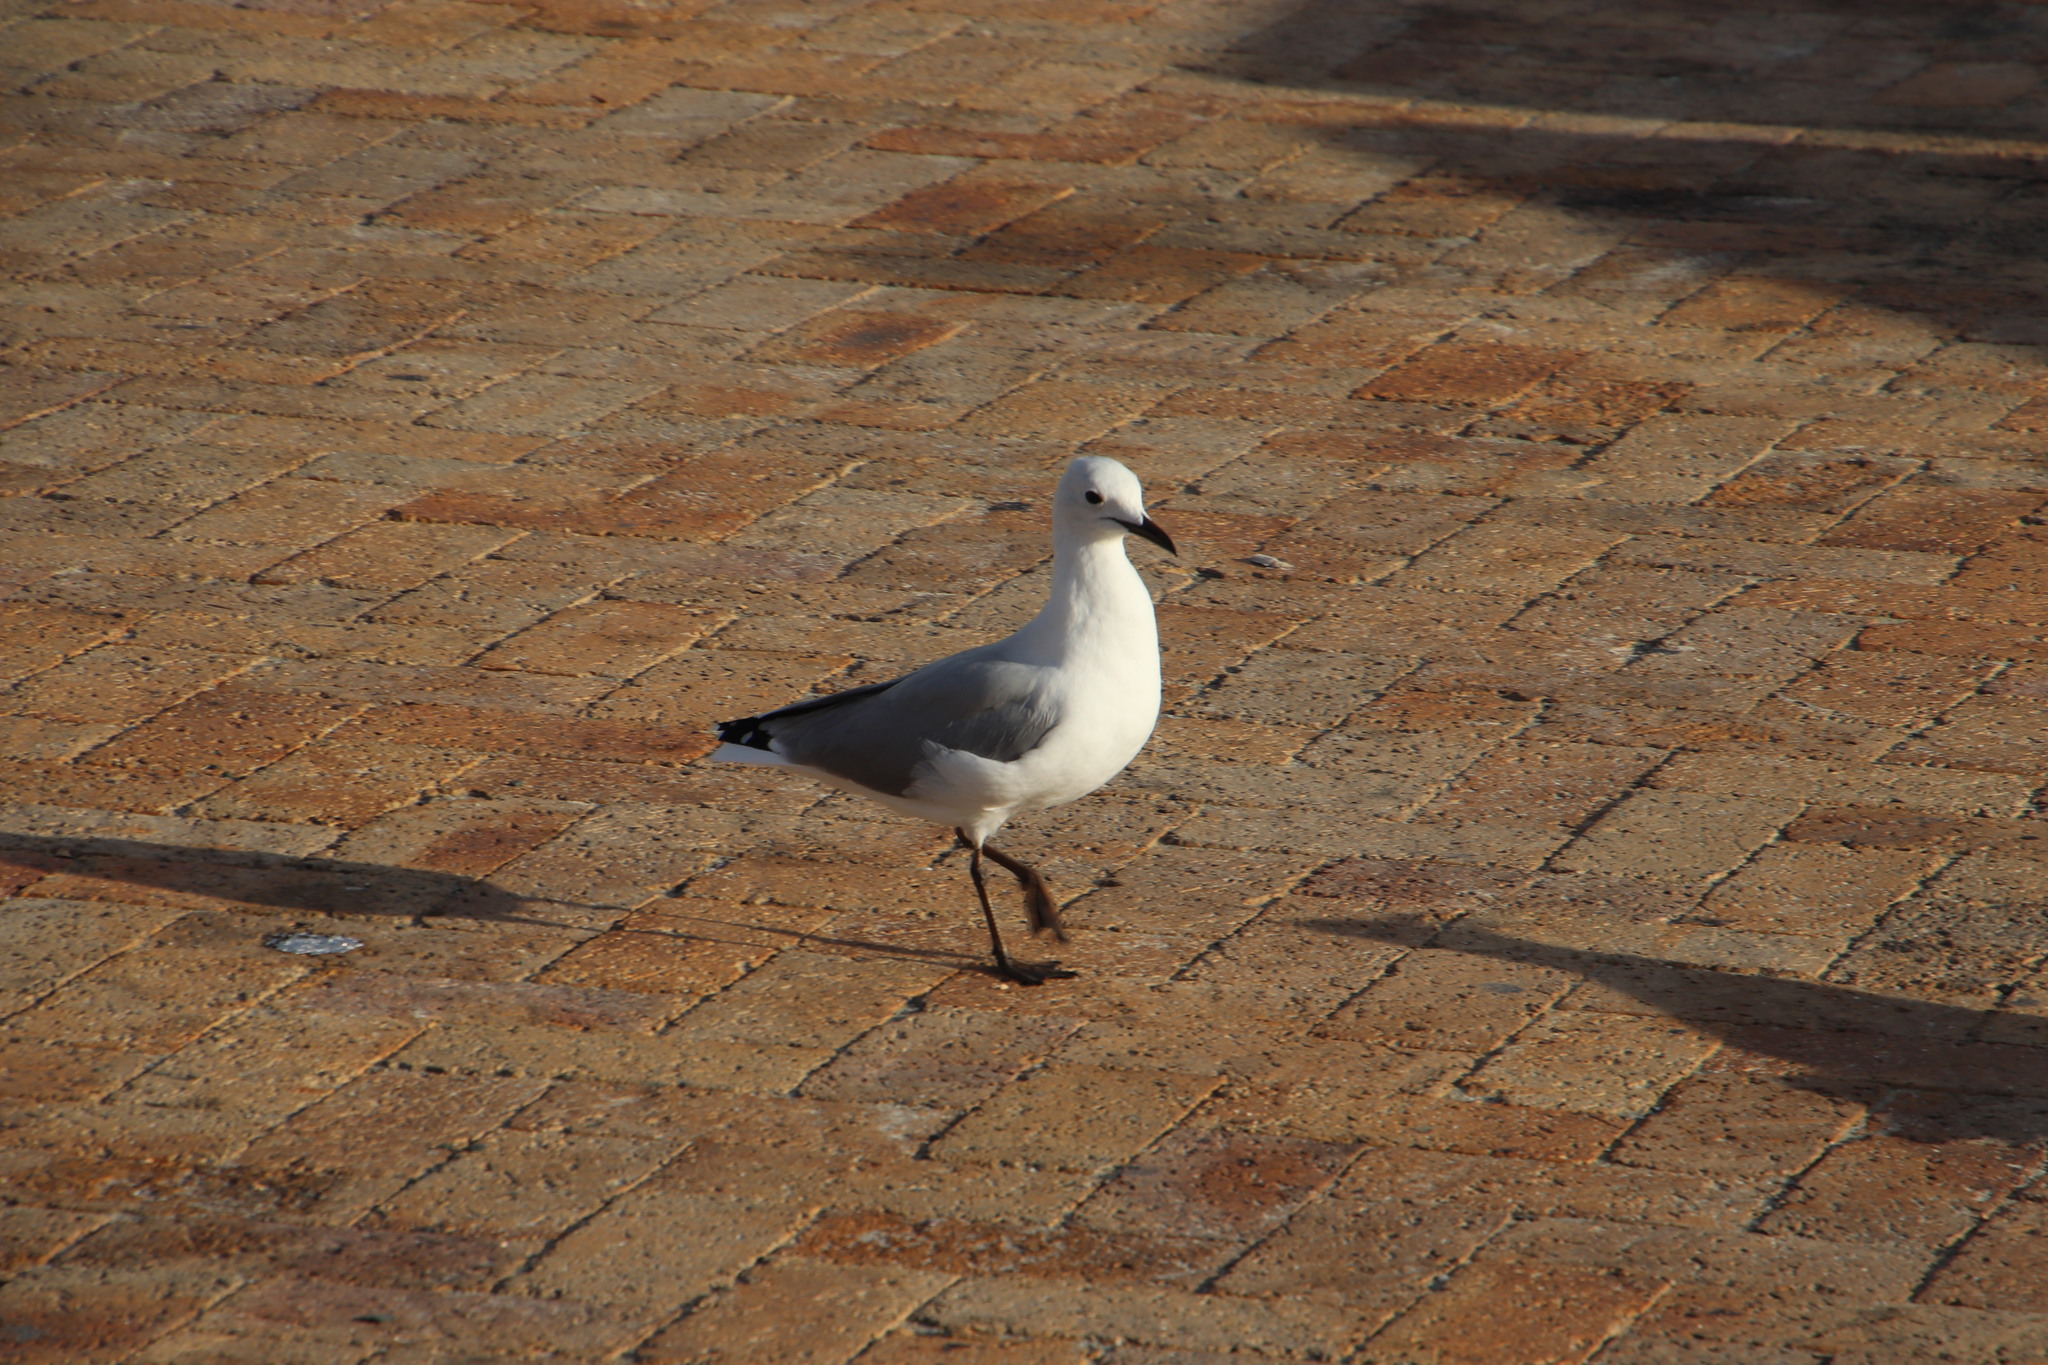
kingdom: Animalia
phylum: Chordata
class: Aves
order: Charadriiformes
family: Laridae
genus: Chroicocephalus
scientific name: Chroicocephalus hartlaubii
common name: Hartlaub's gull
